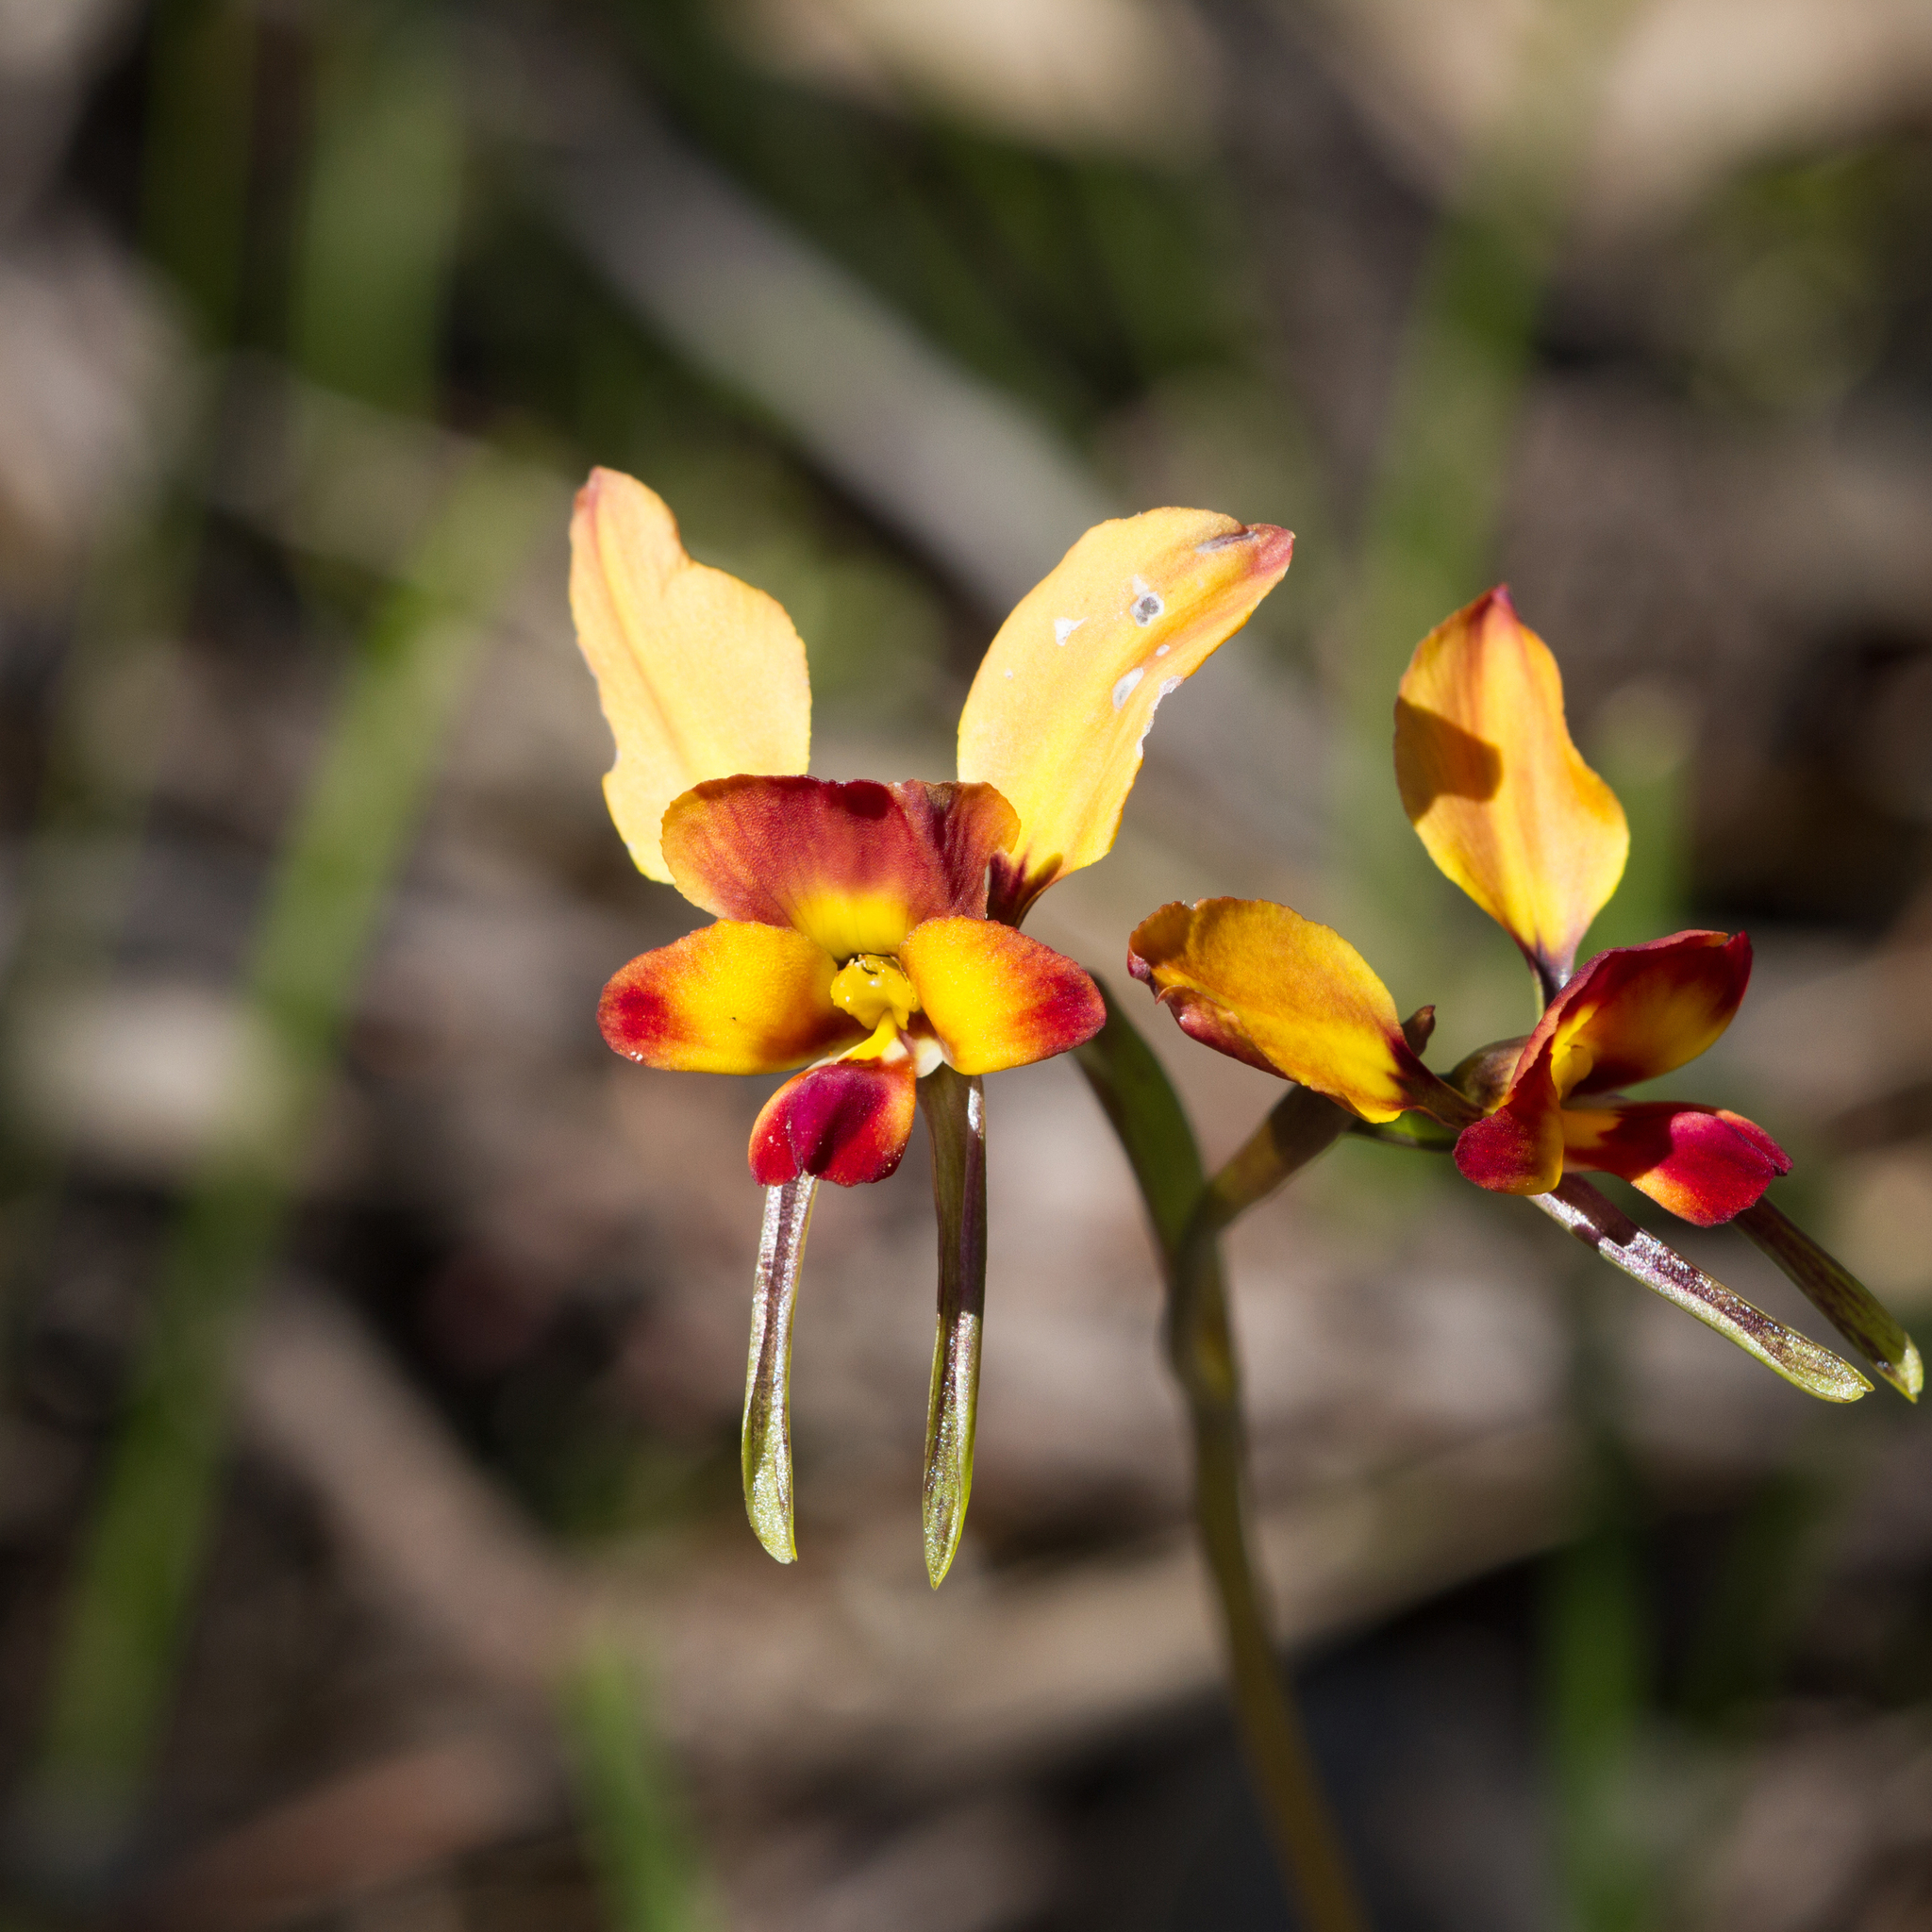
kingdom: Plantae
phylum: Tracheophyta
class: Liliopsida
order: Asparagales
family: Orchidaceae
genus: Diuris
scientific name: Diuris orientis
